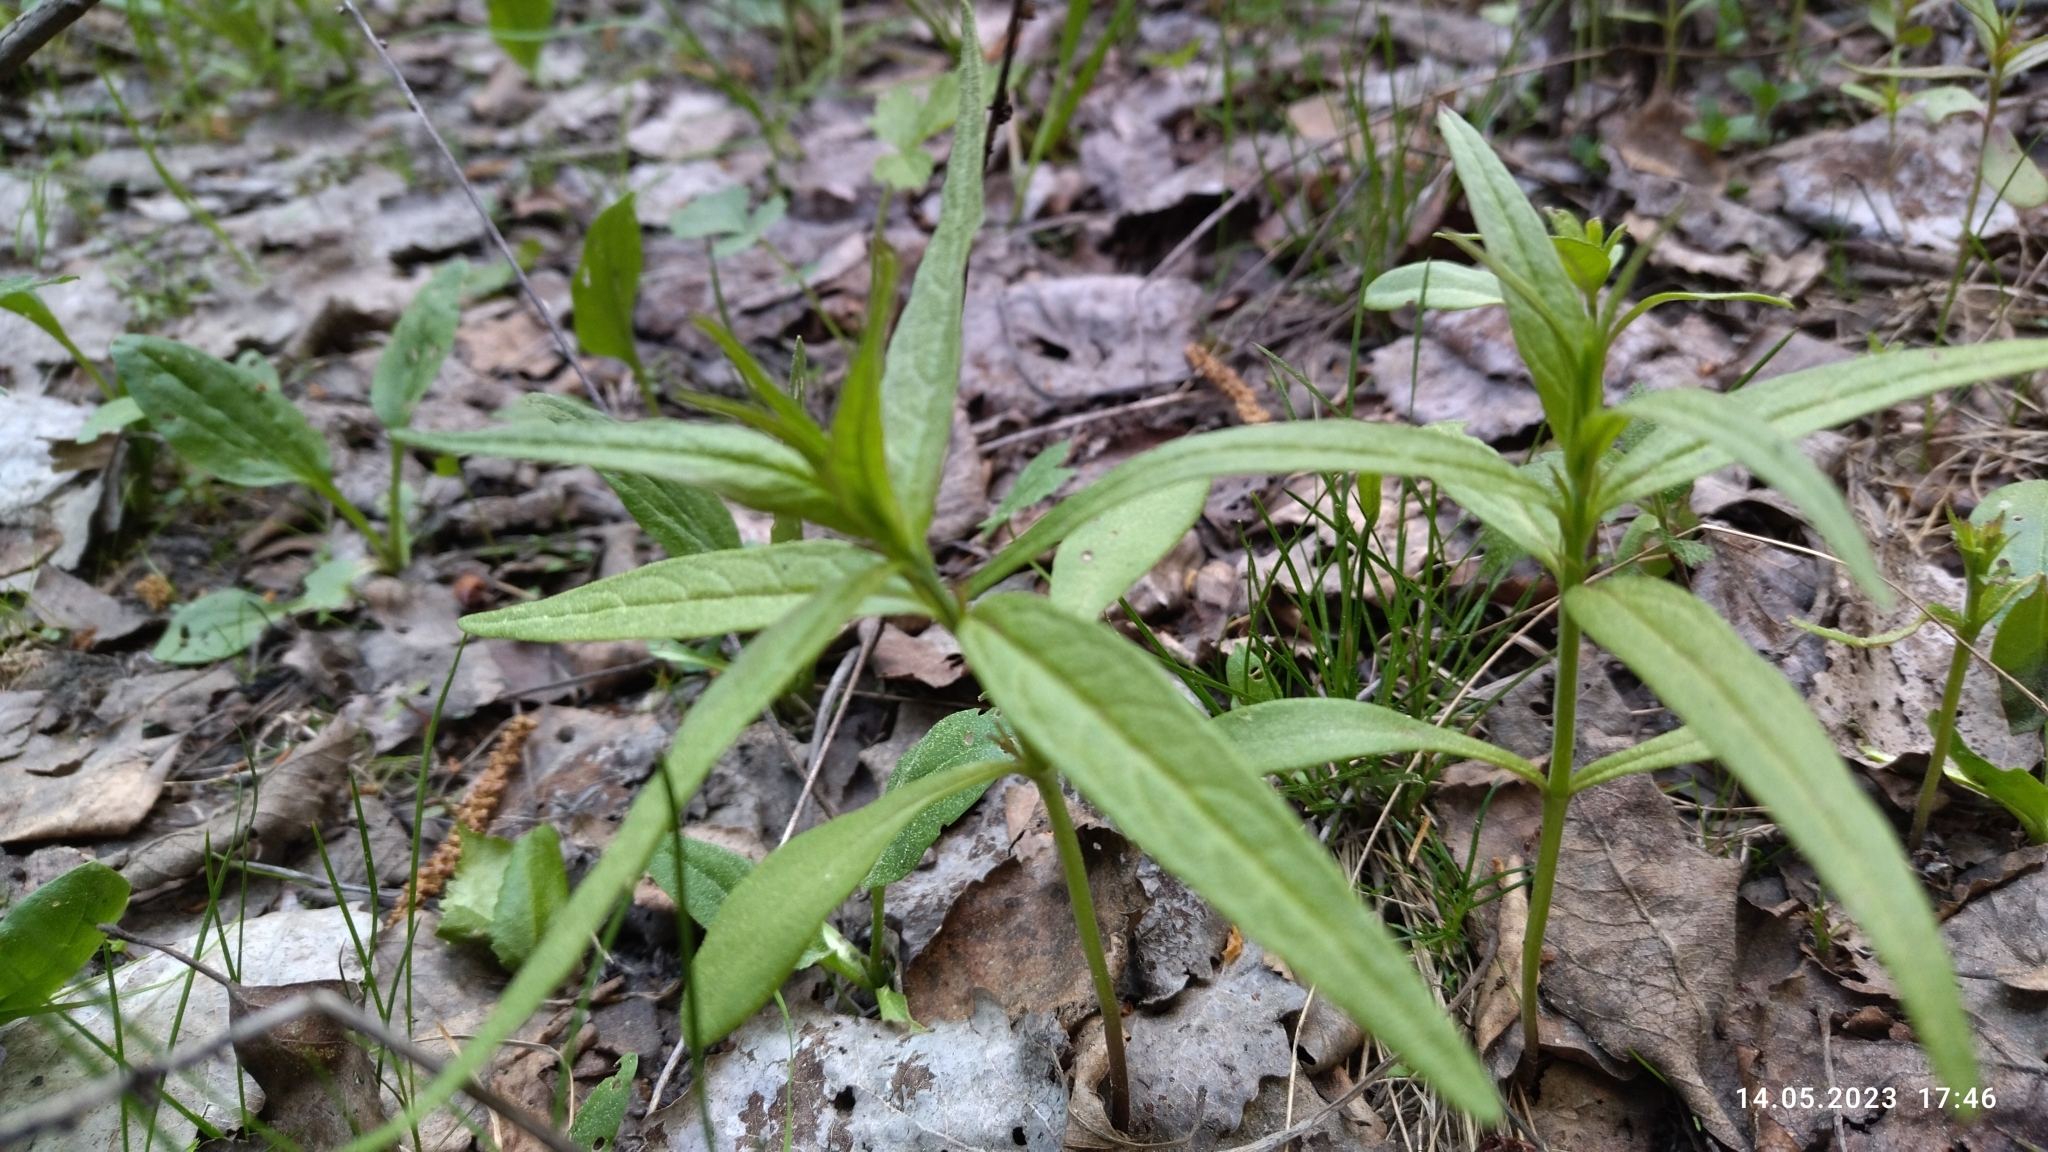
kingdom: Plantae
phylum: Tracheophyta
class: Magnoliopsida
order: Ericales
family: Primulaceae
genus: Lysimachia
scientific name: Lysimachia thyrsiflora
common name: Tufted loosestrife
